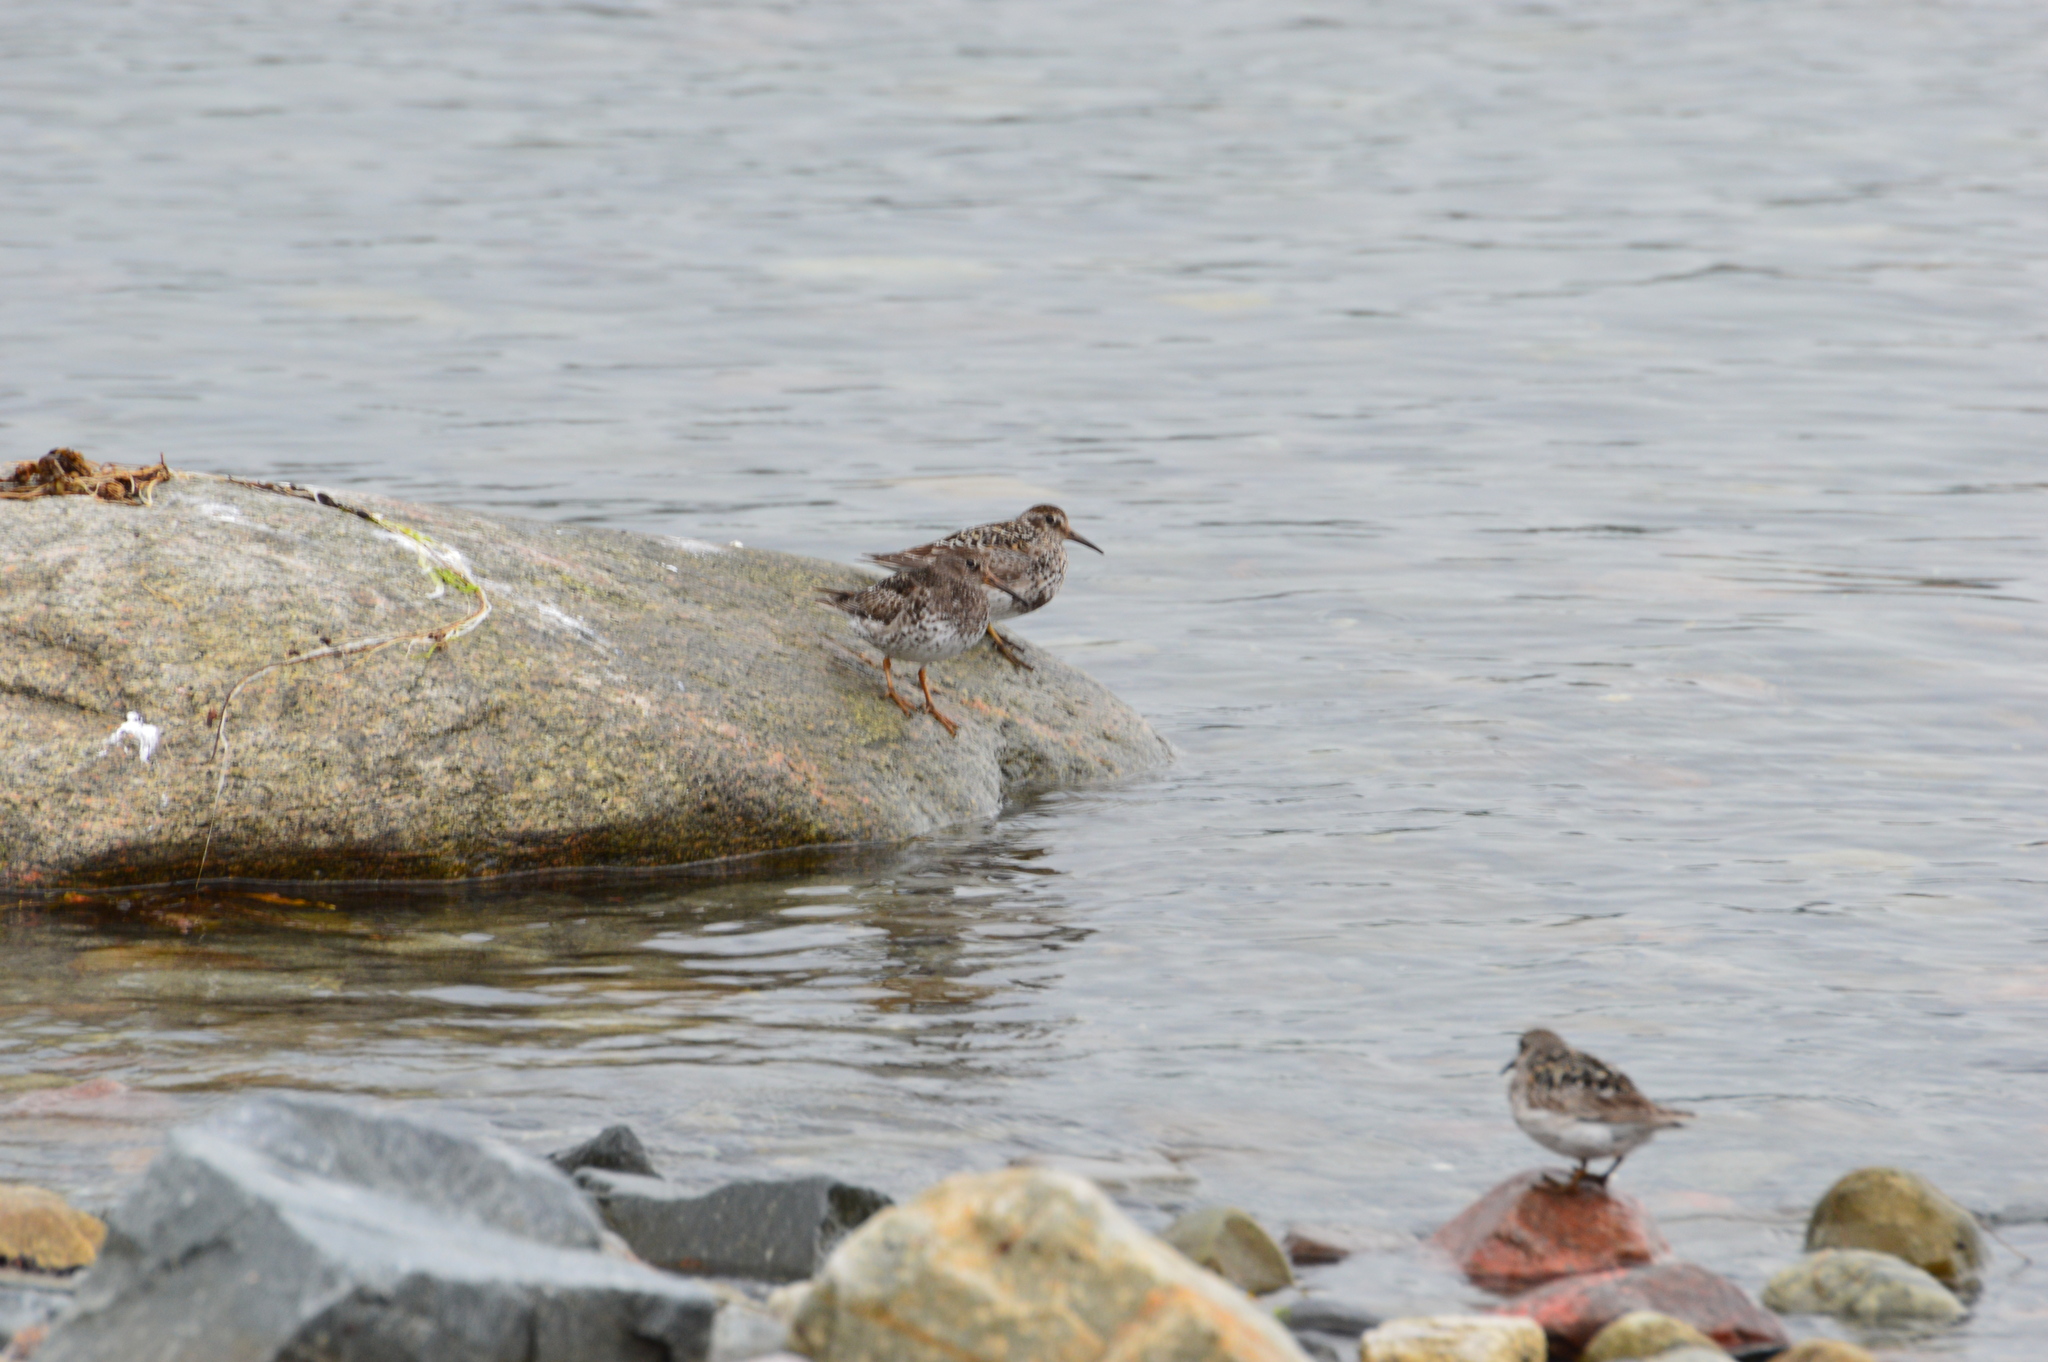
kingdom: Animalia
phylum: Chordata
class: Aves
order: Charadriiformes
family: Scolopacidae
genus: Calidris
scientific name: Calidris maritima
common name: Purple sandpiper
